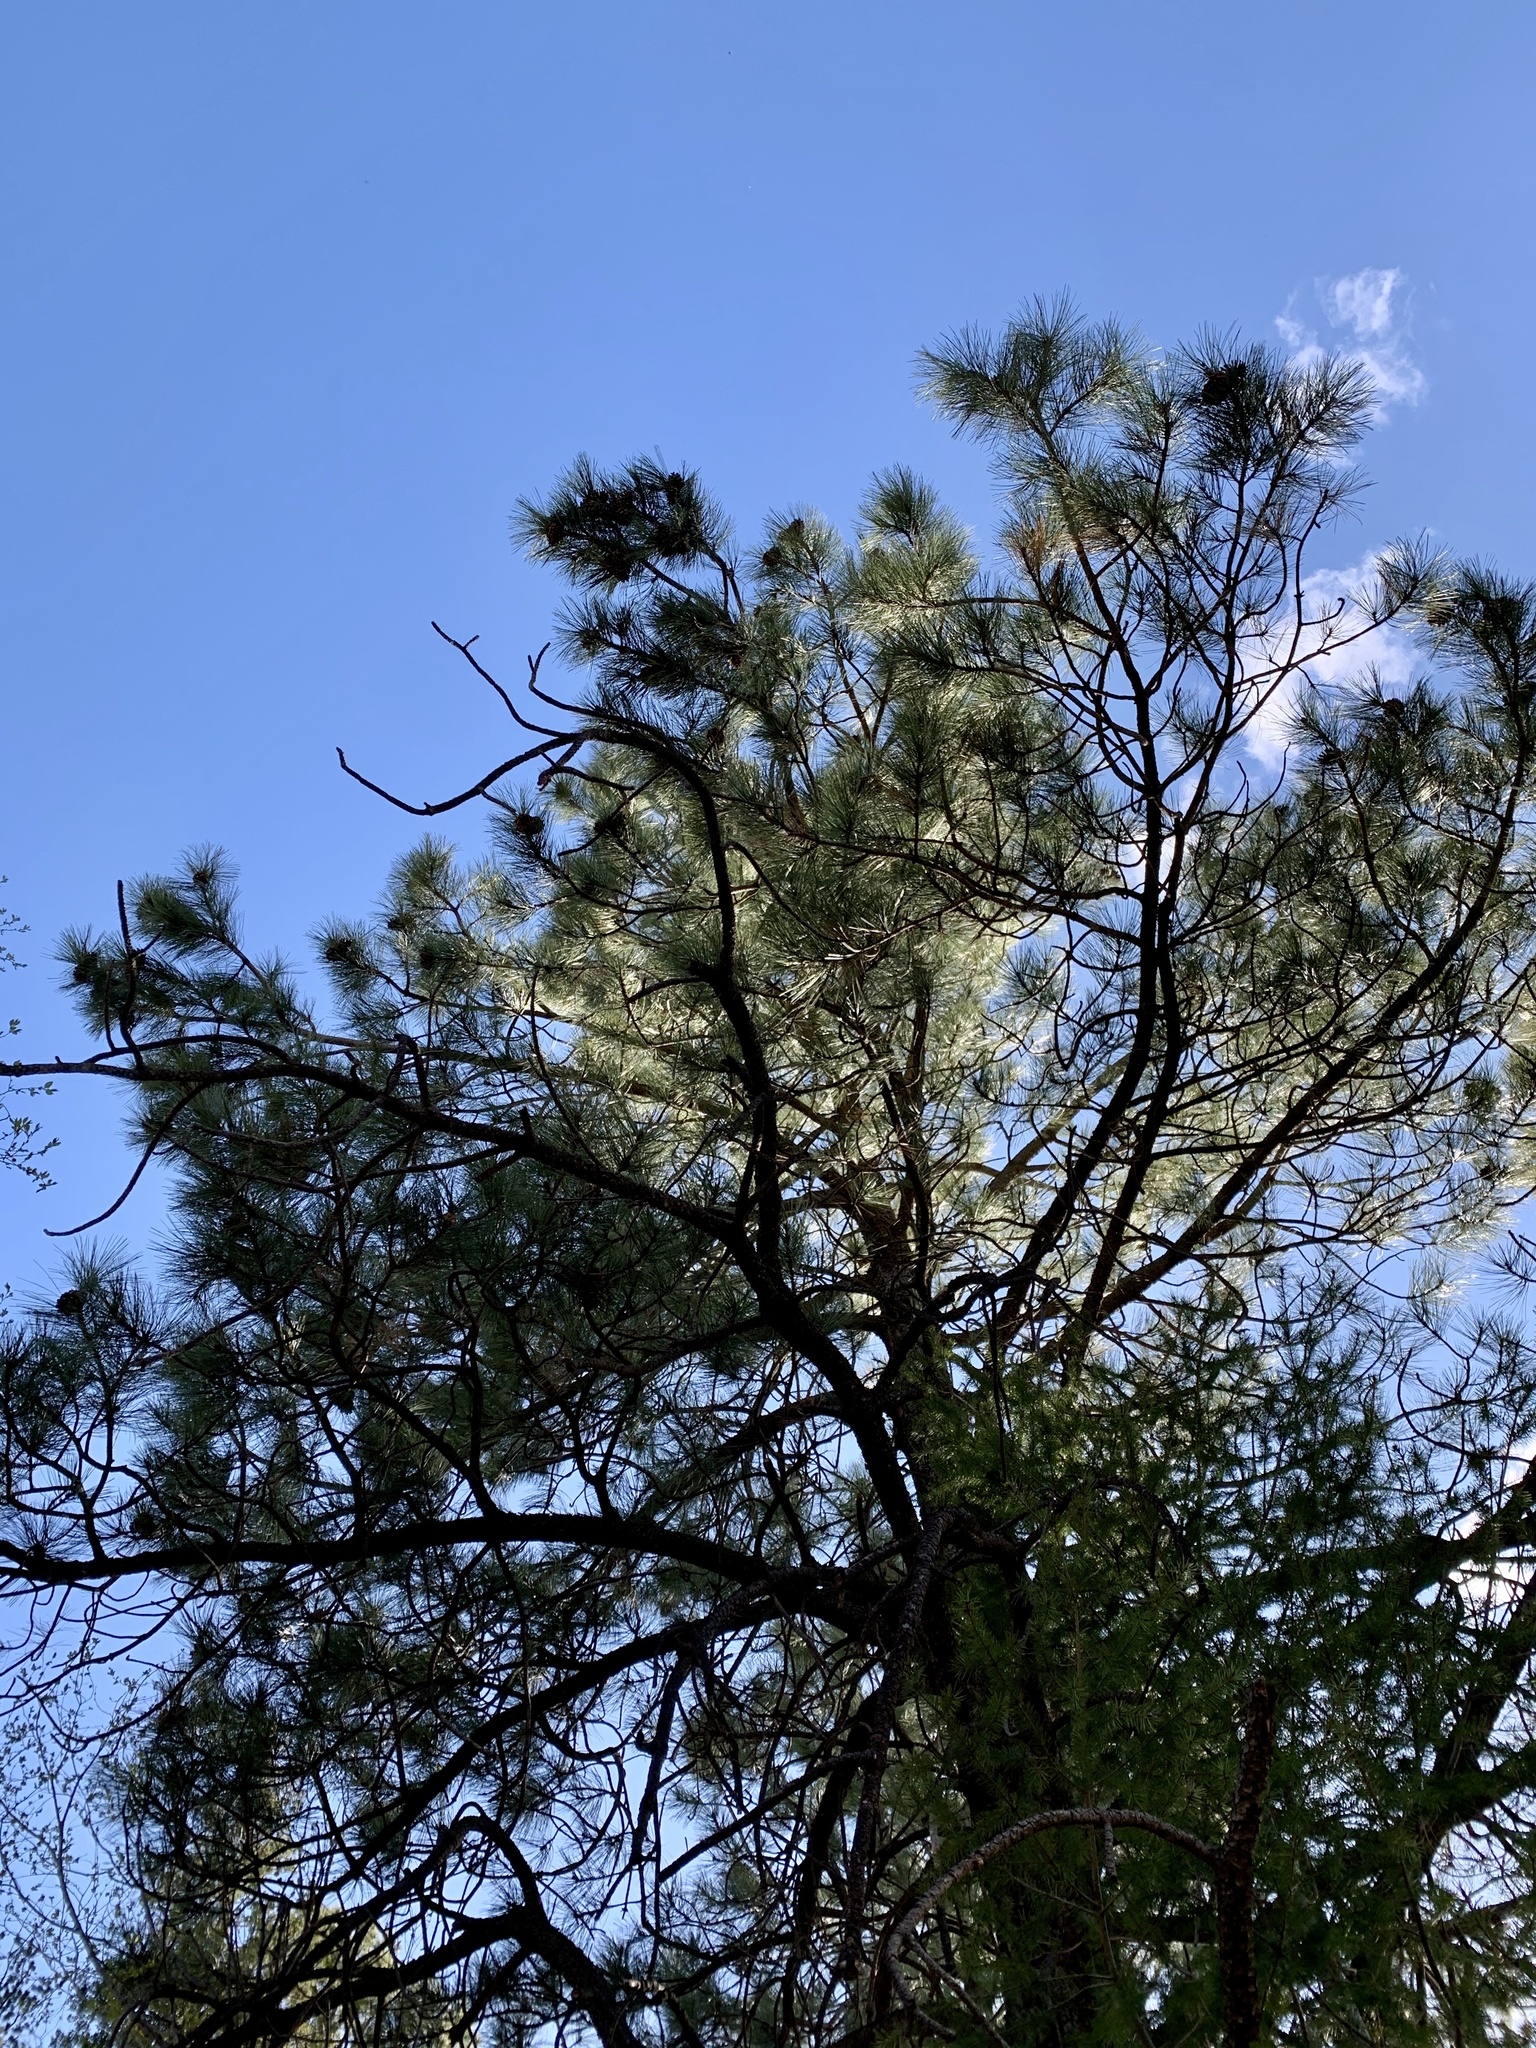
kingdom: Plantae
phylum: Tracheophyta
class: Pinopsida
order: Pinales
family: Pinaceae
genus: Pinus
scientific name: Pinus ponderosa
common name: Western yellow-pine
